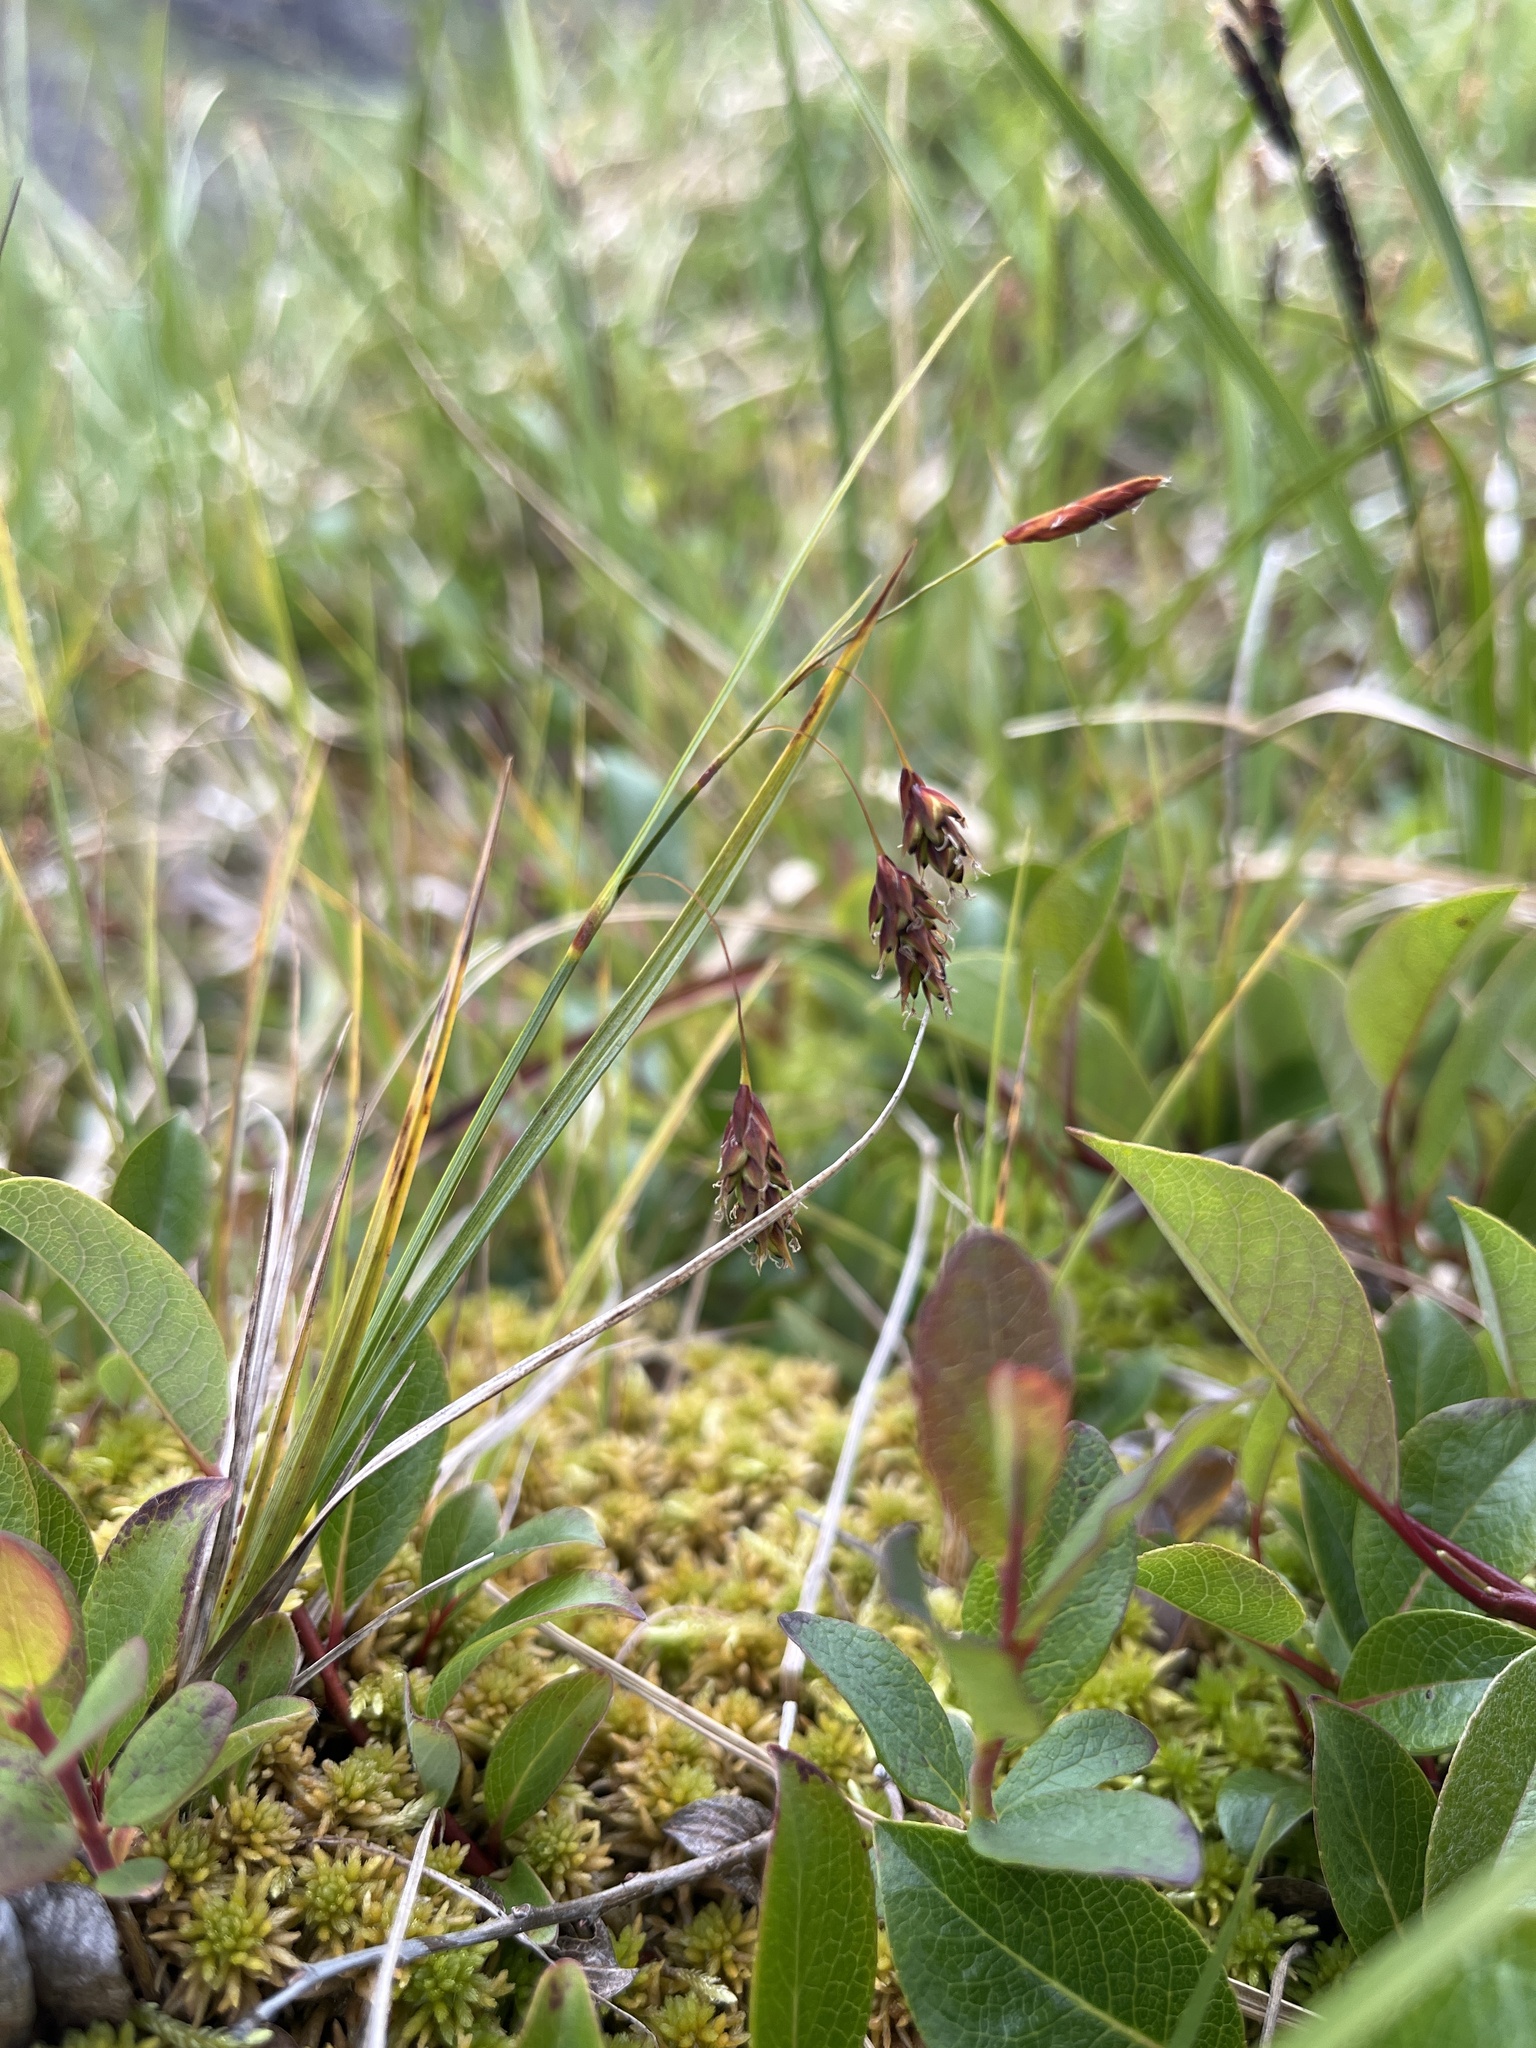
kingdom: Plantae
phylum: Tracheophyta
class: Liliopsida
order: Poales
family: Cyperaceae
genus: Carex
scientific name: Carex magellanica
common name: Bog sedge
